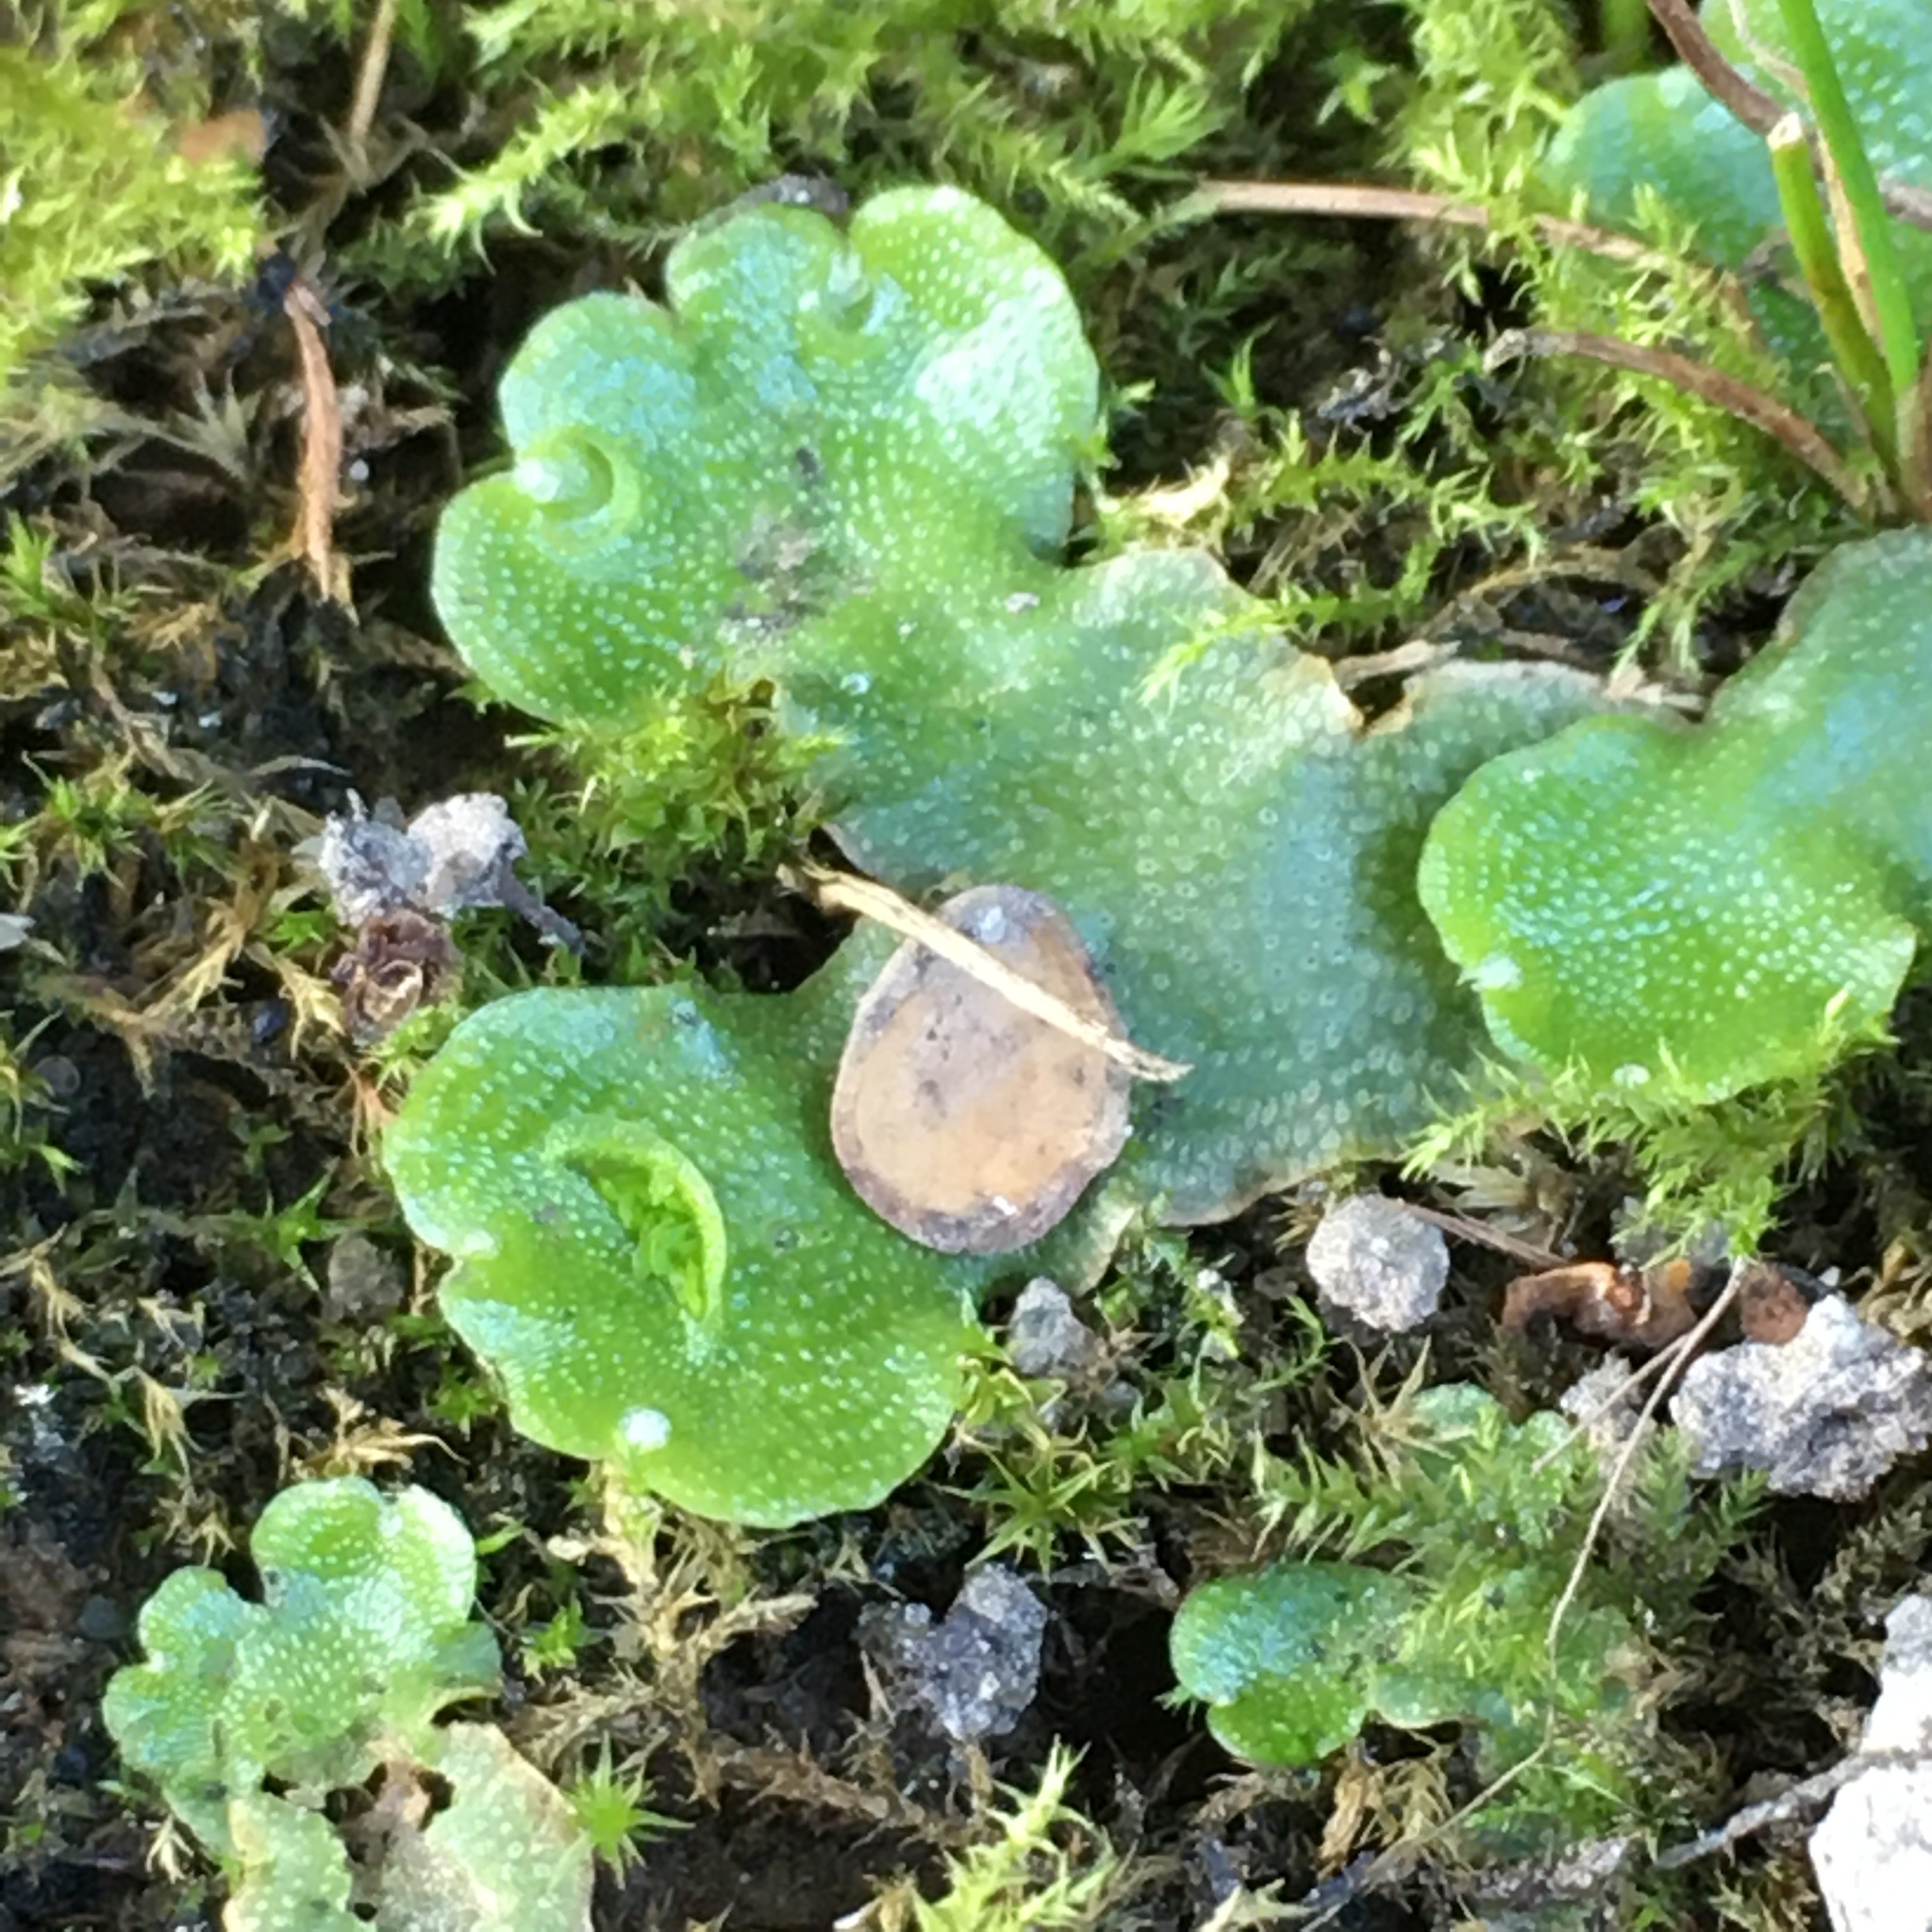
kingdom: Plantae
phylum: Marchantiophyta
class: Marchantiopsida
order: Lunulariales
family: Lunulariaceae
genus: Lunularia
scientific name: Lunularia cruciata
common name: Crescent-cup liverwort
